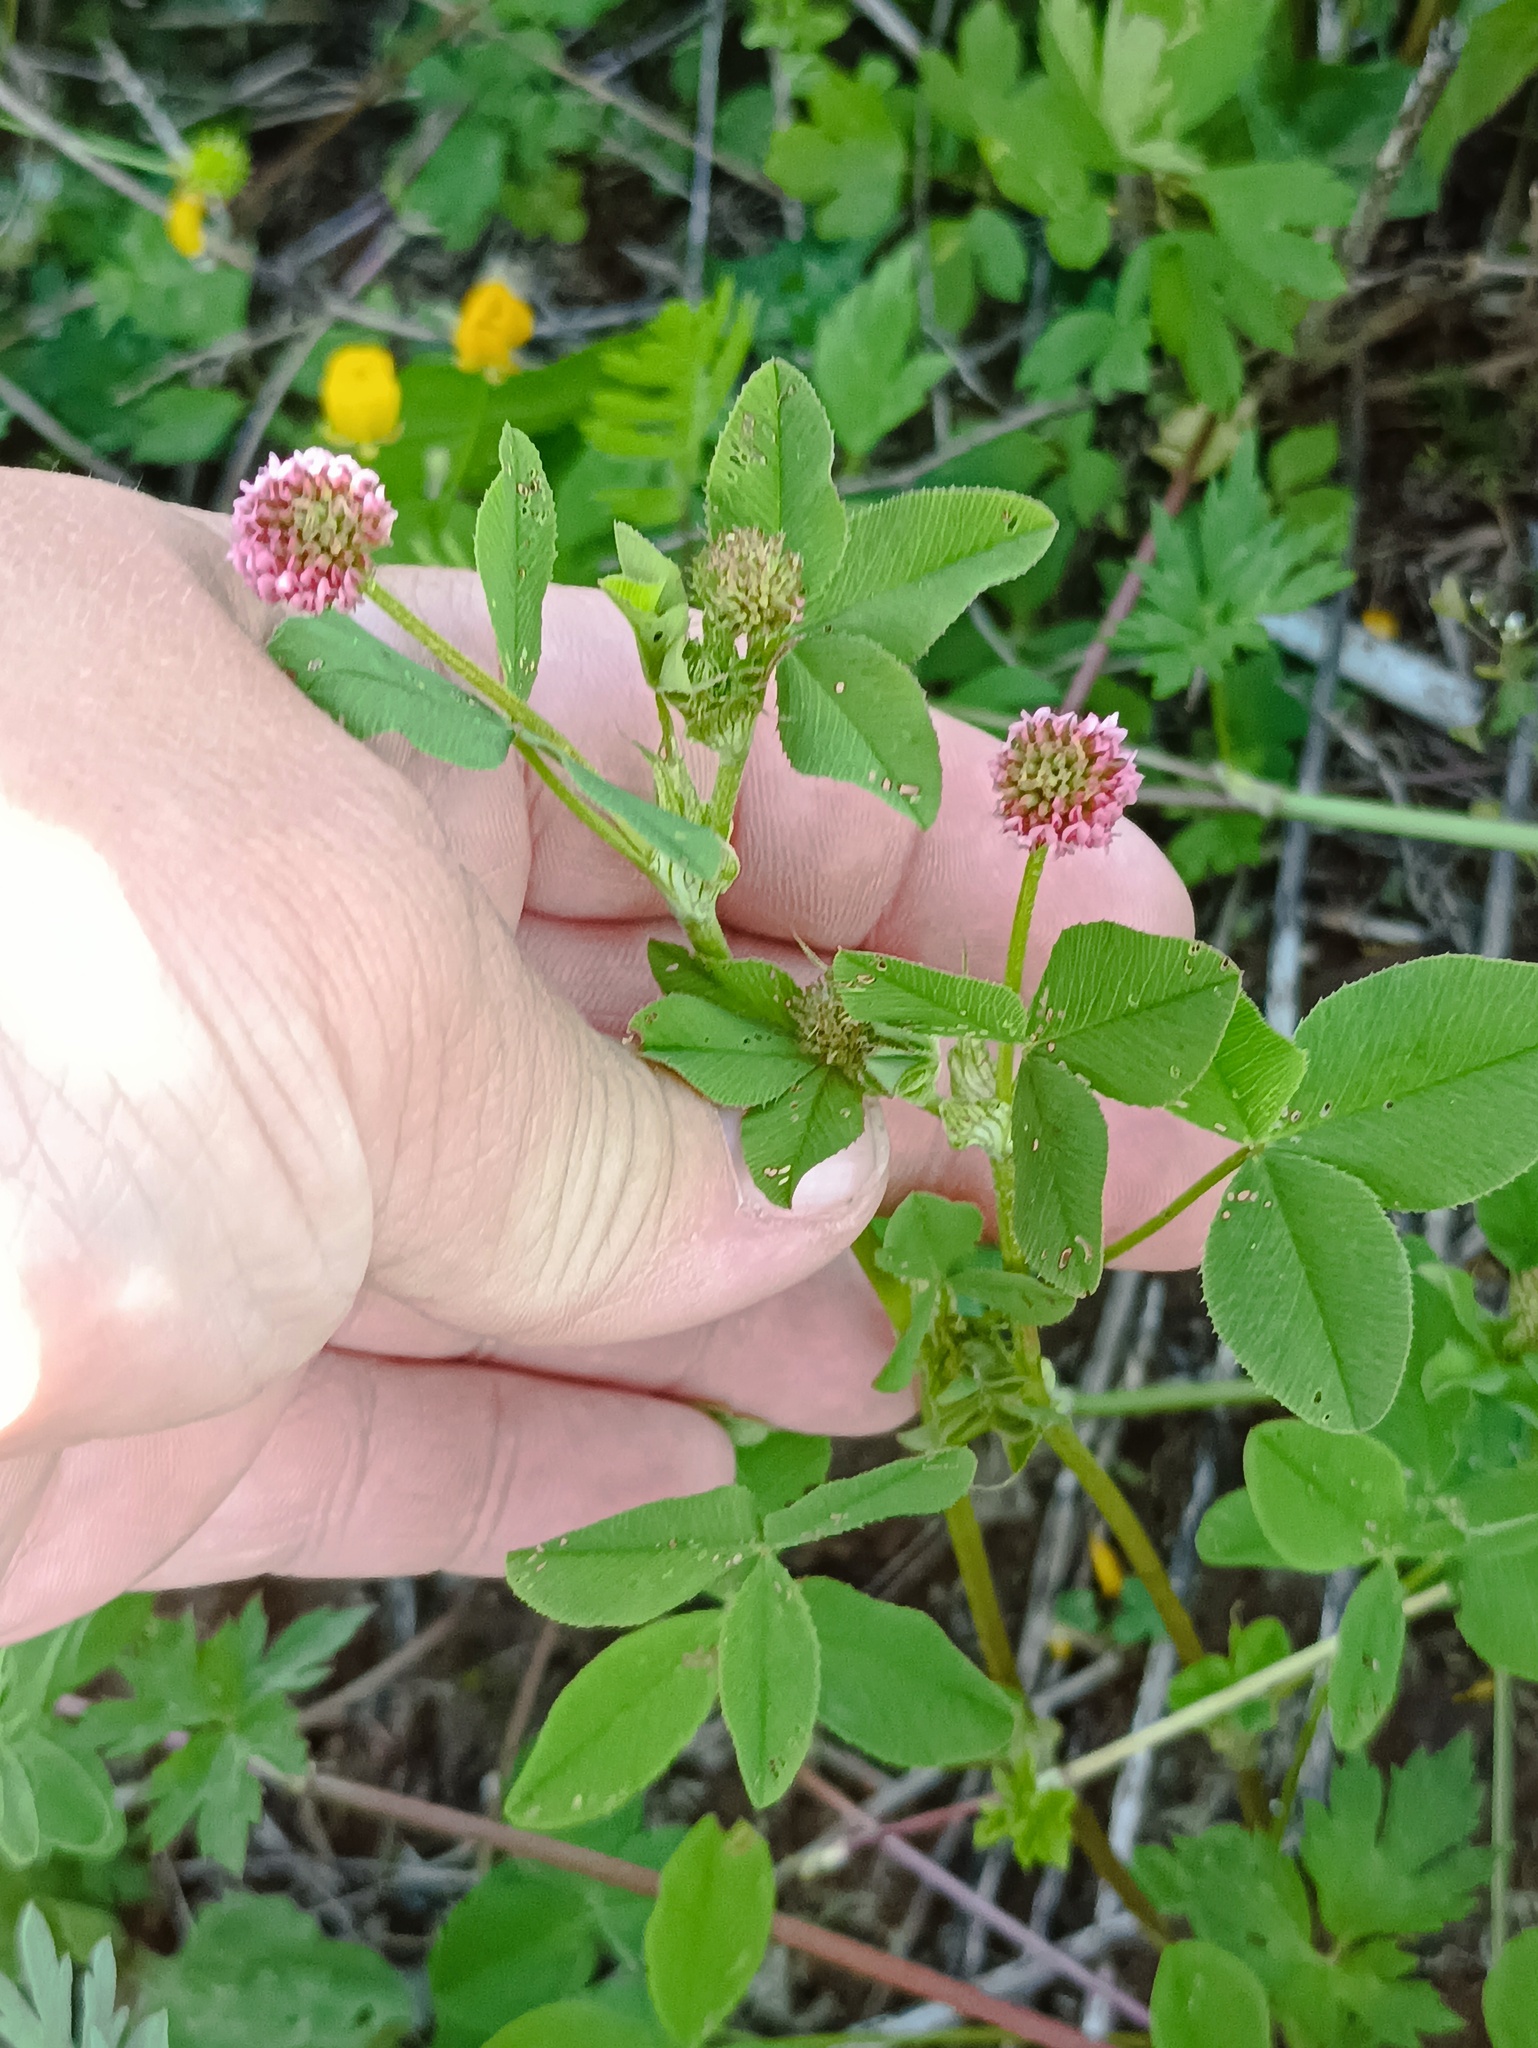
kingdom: Plantae
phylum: Tracheophyta
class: Magnoliopsida
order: Fabales
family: Fabaceae
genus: Trifolium
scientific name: Trifolium hybridum
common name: Alsike clover
